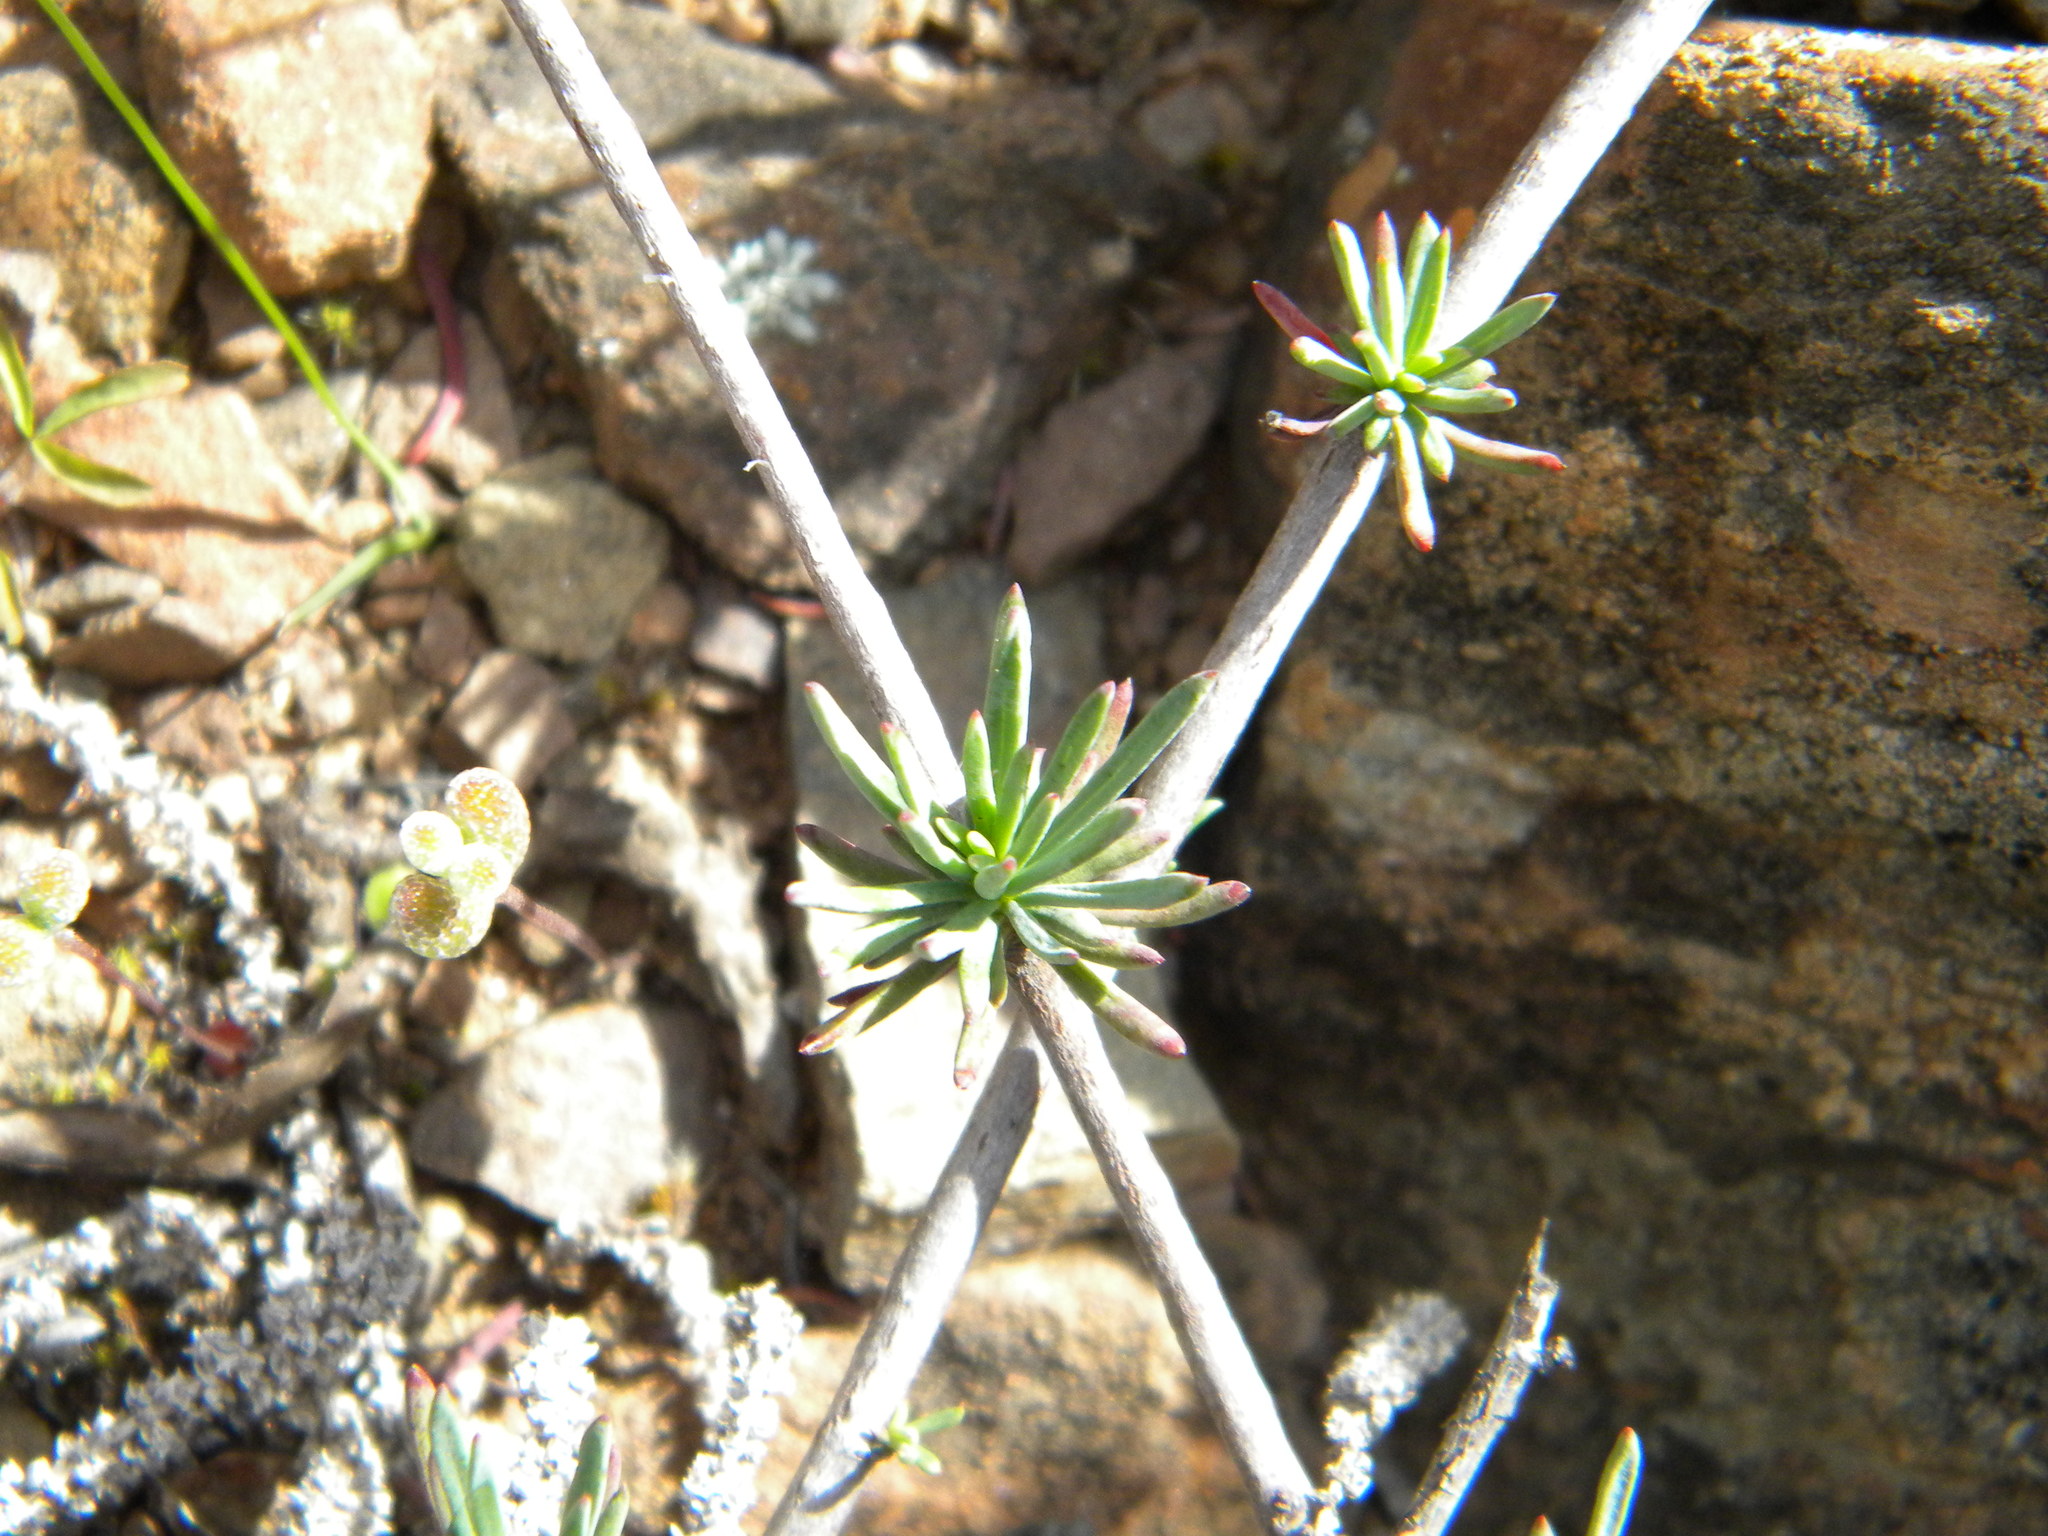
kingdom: Plantae
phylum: Tracheophyta
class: Magnoliopsida
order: Malvales
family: Malvaceae
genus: Hermannia
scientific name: Hermannia filifolia
